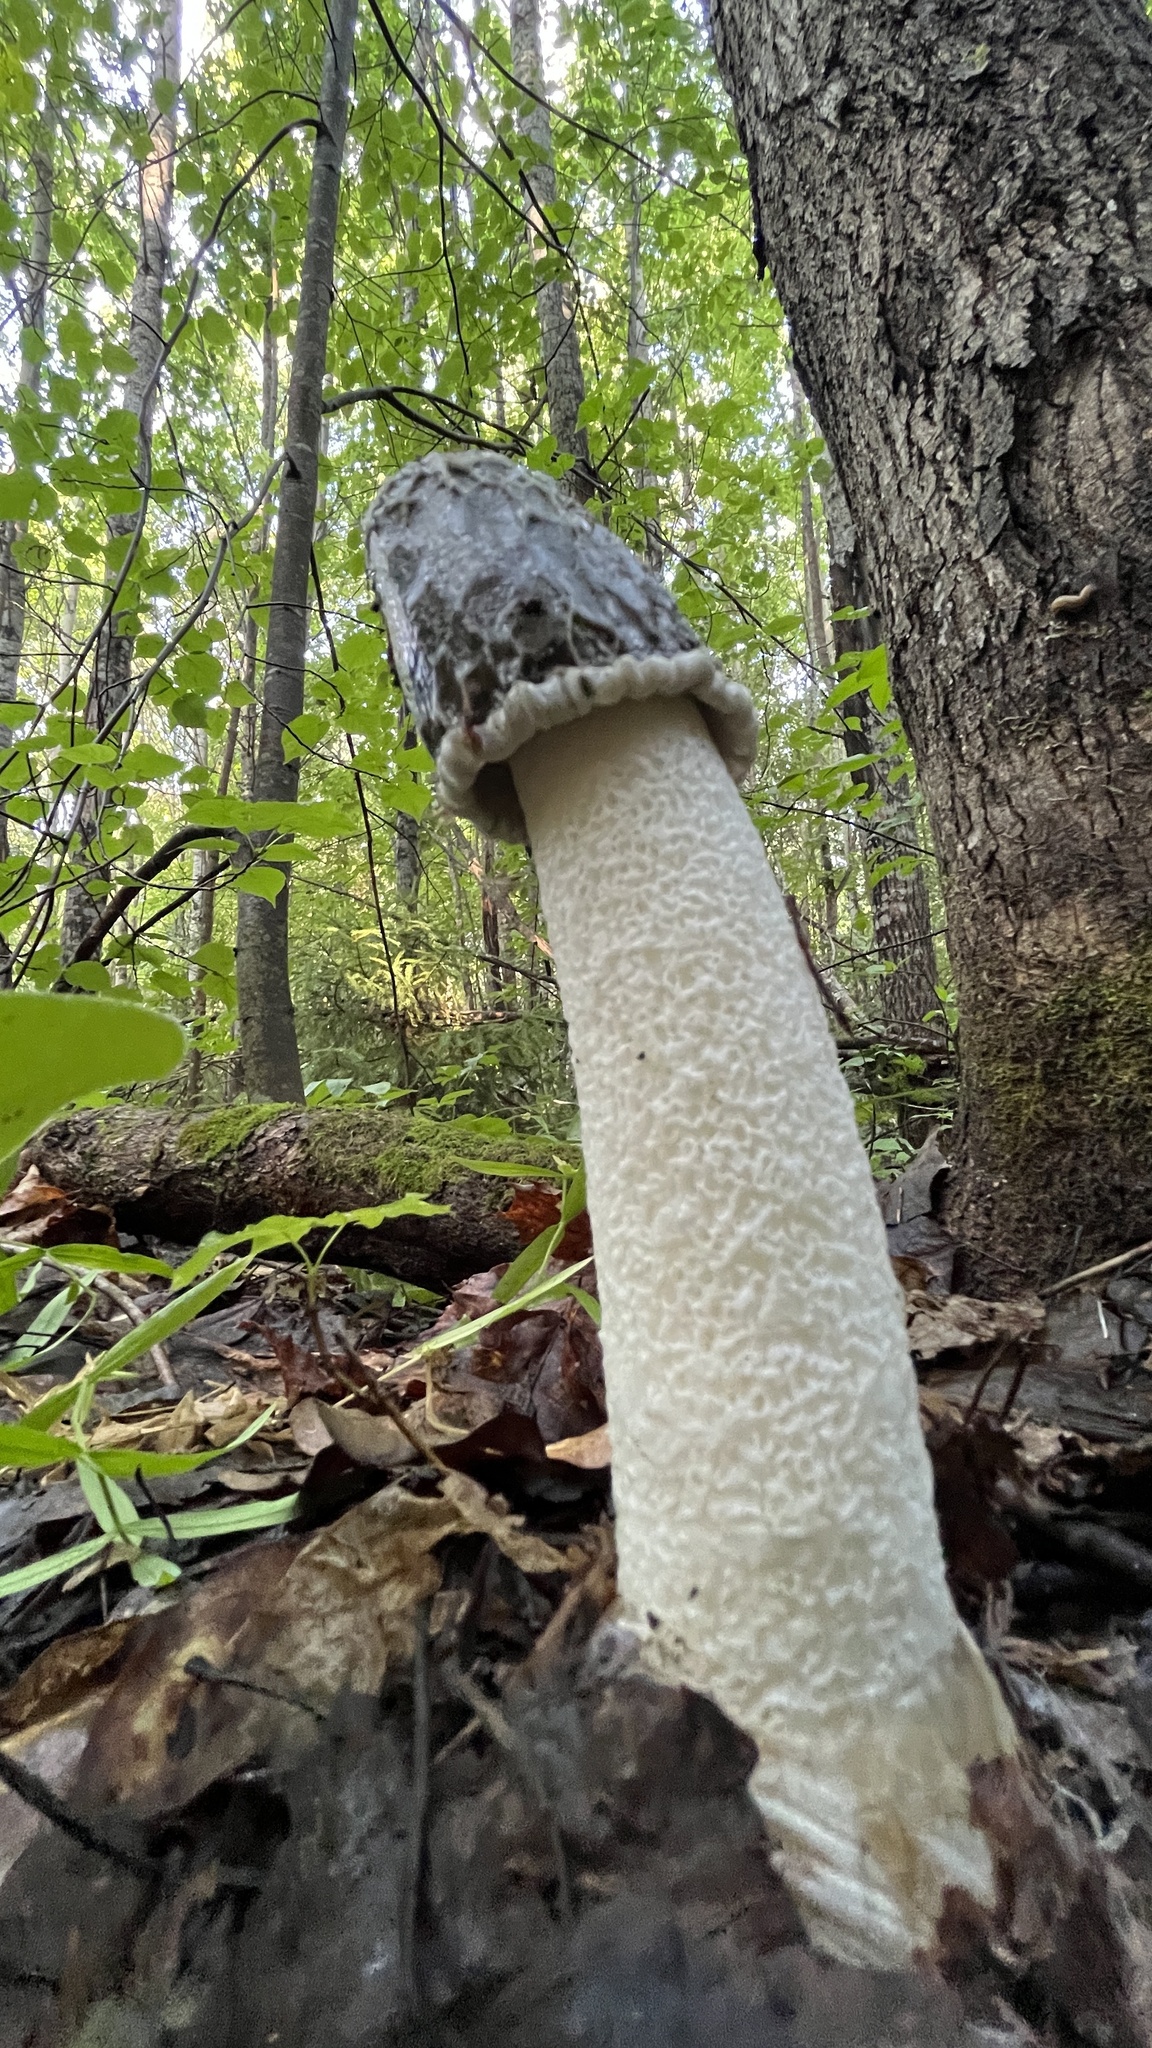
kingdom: Fungi
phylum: Basidiomycota
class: Agaricomycetes
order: Phallales
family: Phallaceae
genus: Phallus
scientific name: Phallus impudicus
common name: Common stinkhorn
